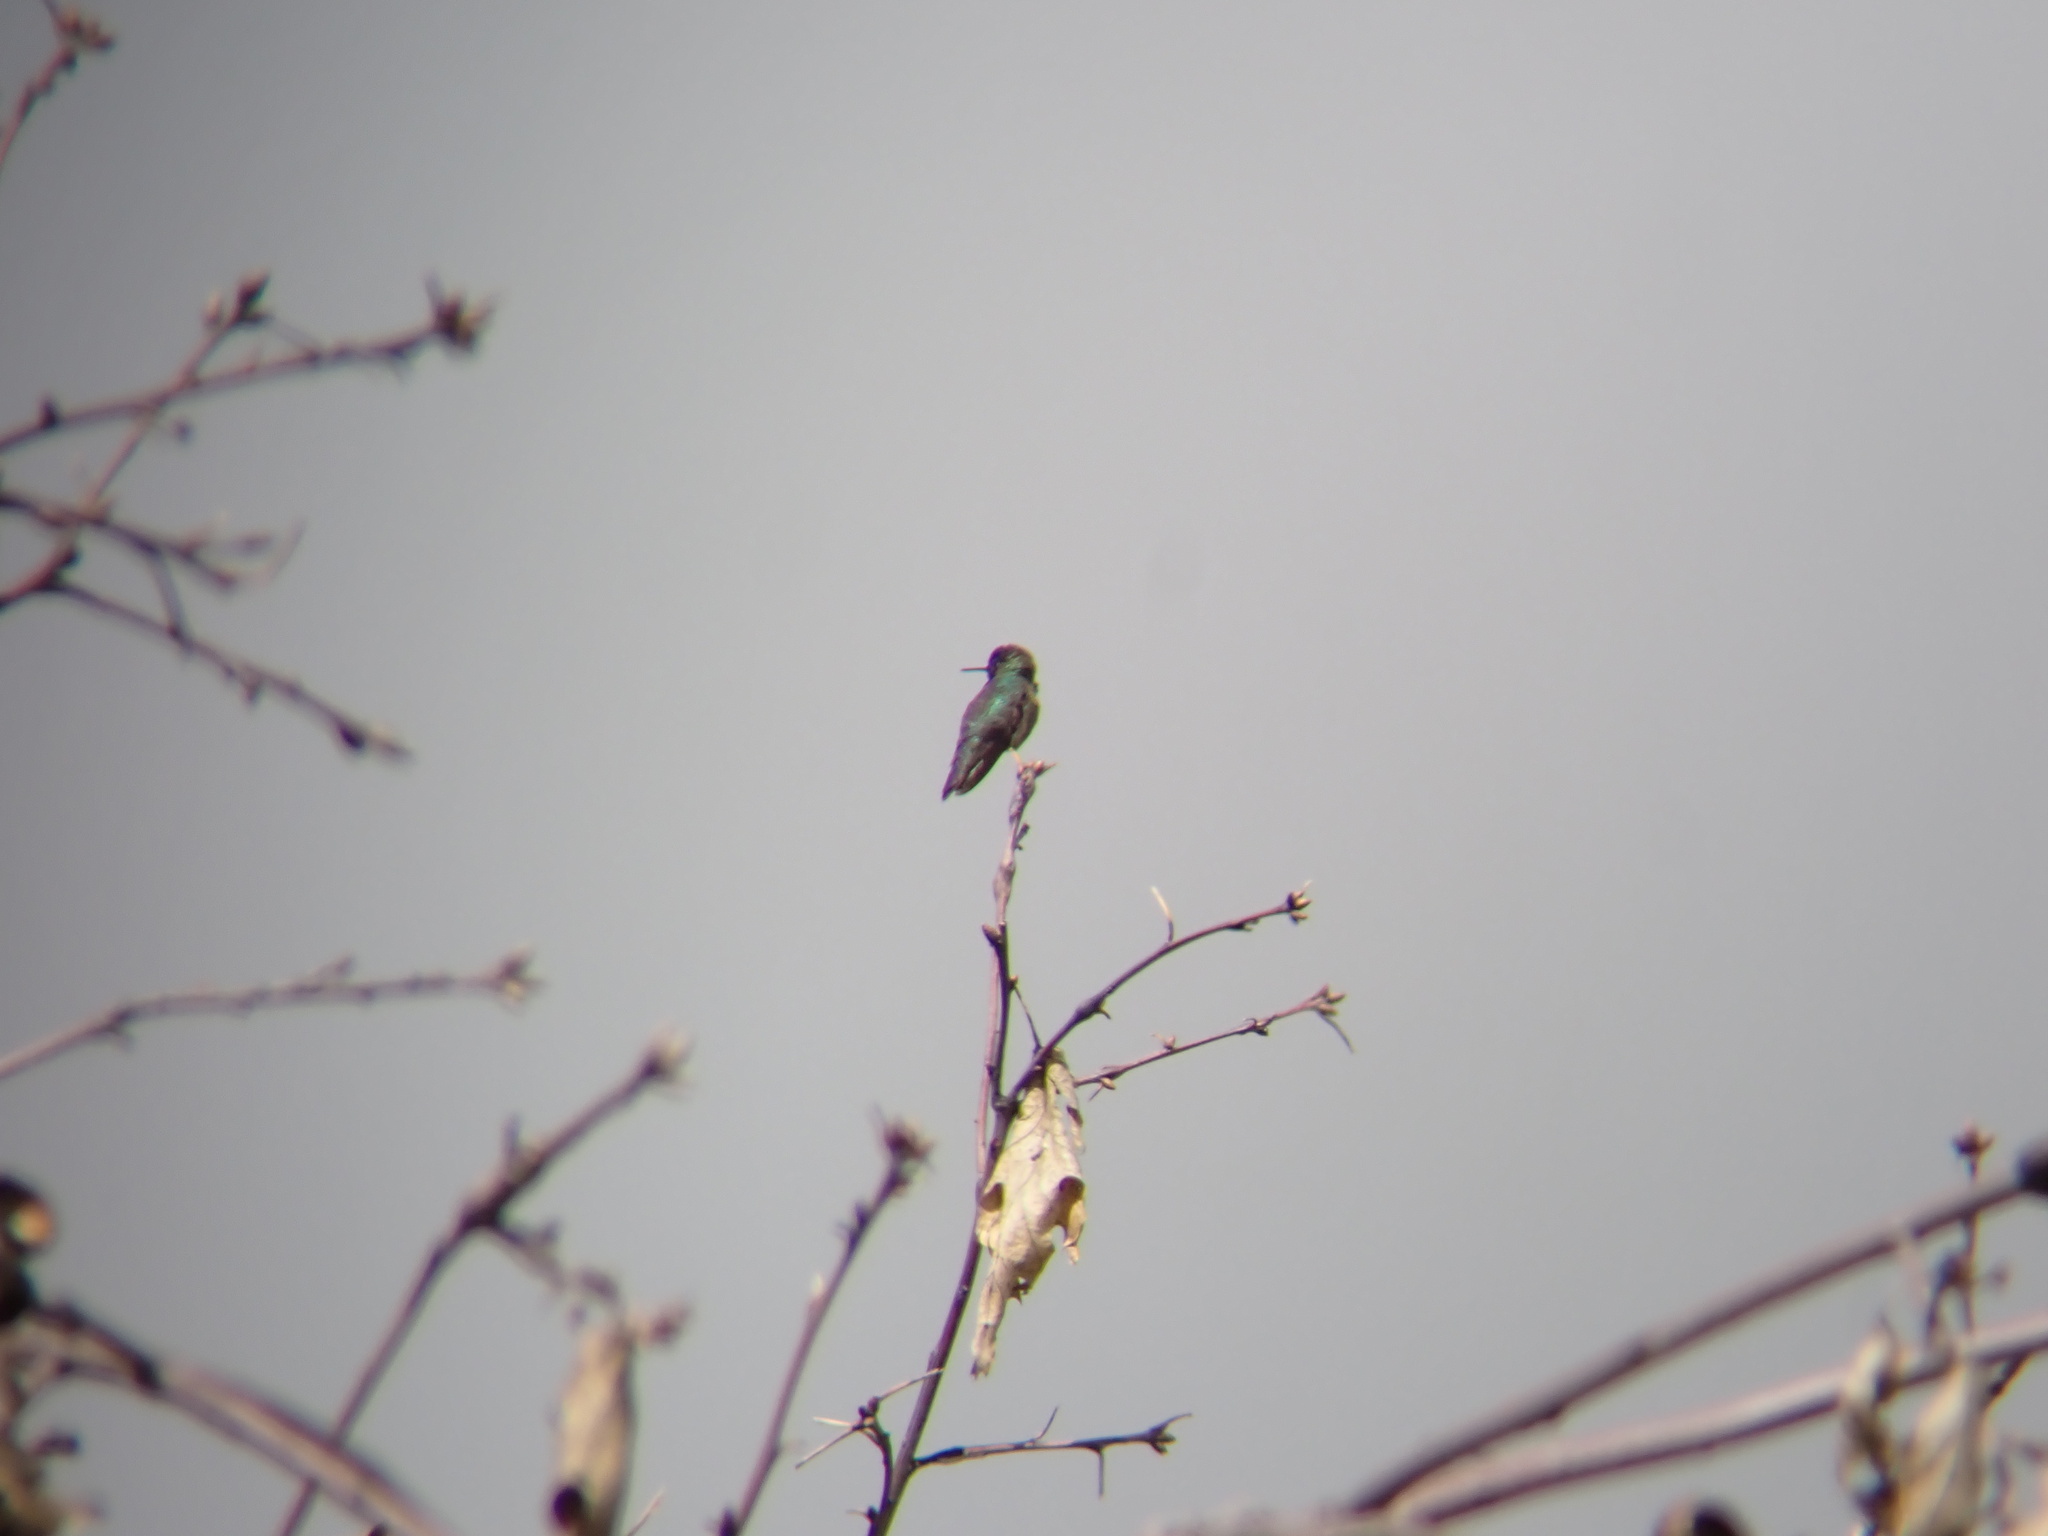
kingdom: Animalia
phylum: Chordata
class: Aves
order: Apodiformes
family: Trochilidae
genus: Calypte
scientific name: Calypte anna
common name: Anna's hummingbird
